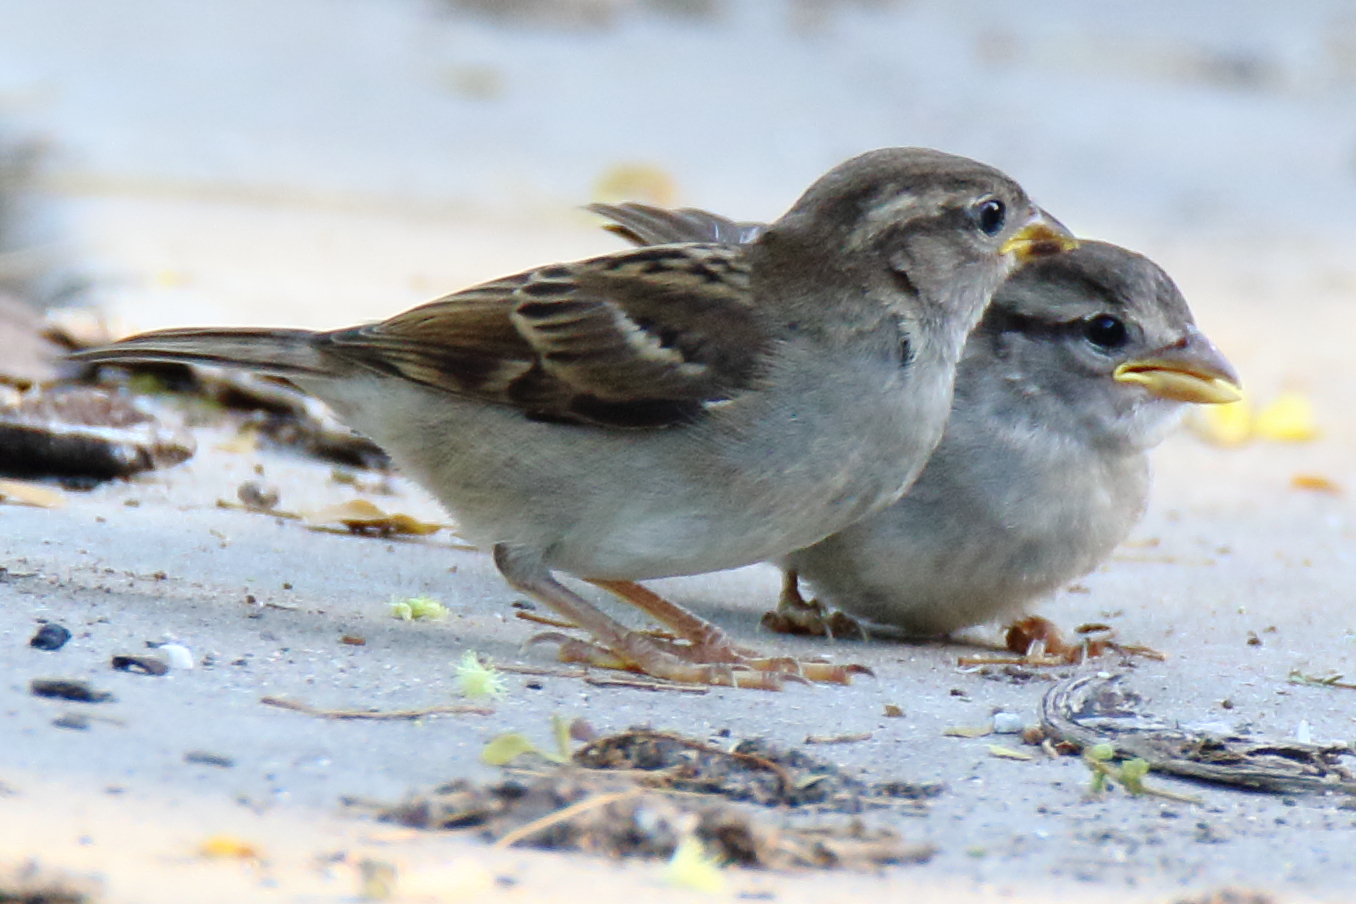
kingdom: Animalia
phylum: Chordata
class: Aves
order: Passeriformes
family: Passeridae
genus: Passer
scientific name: Passer domesticus
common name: House sparrow
